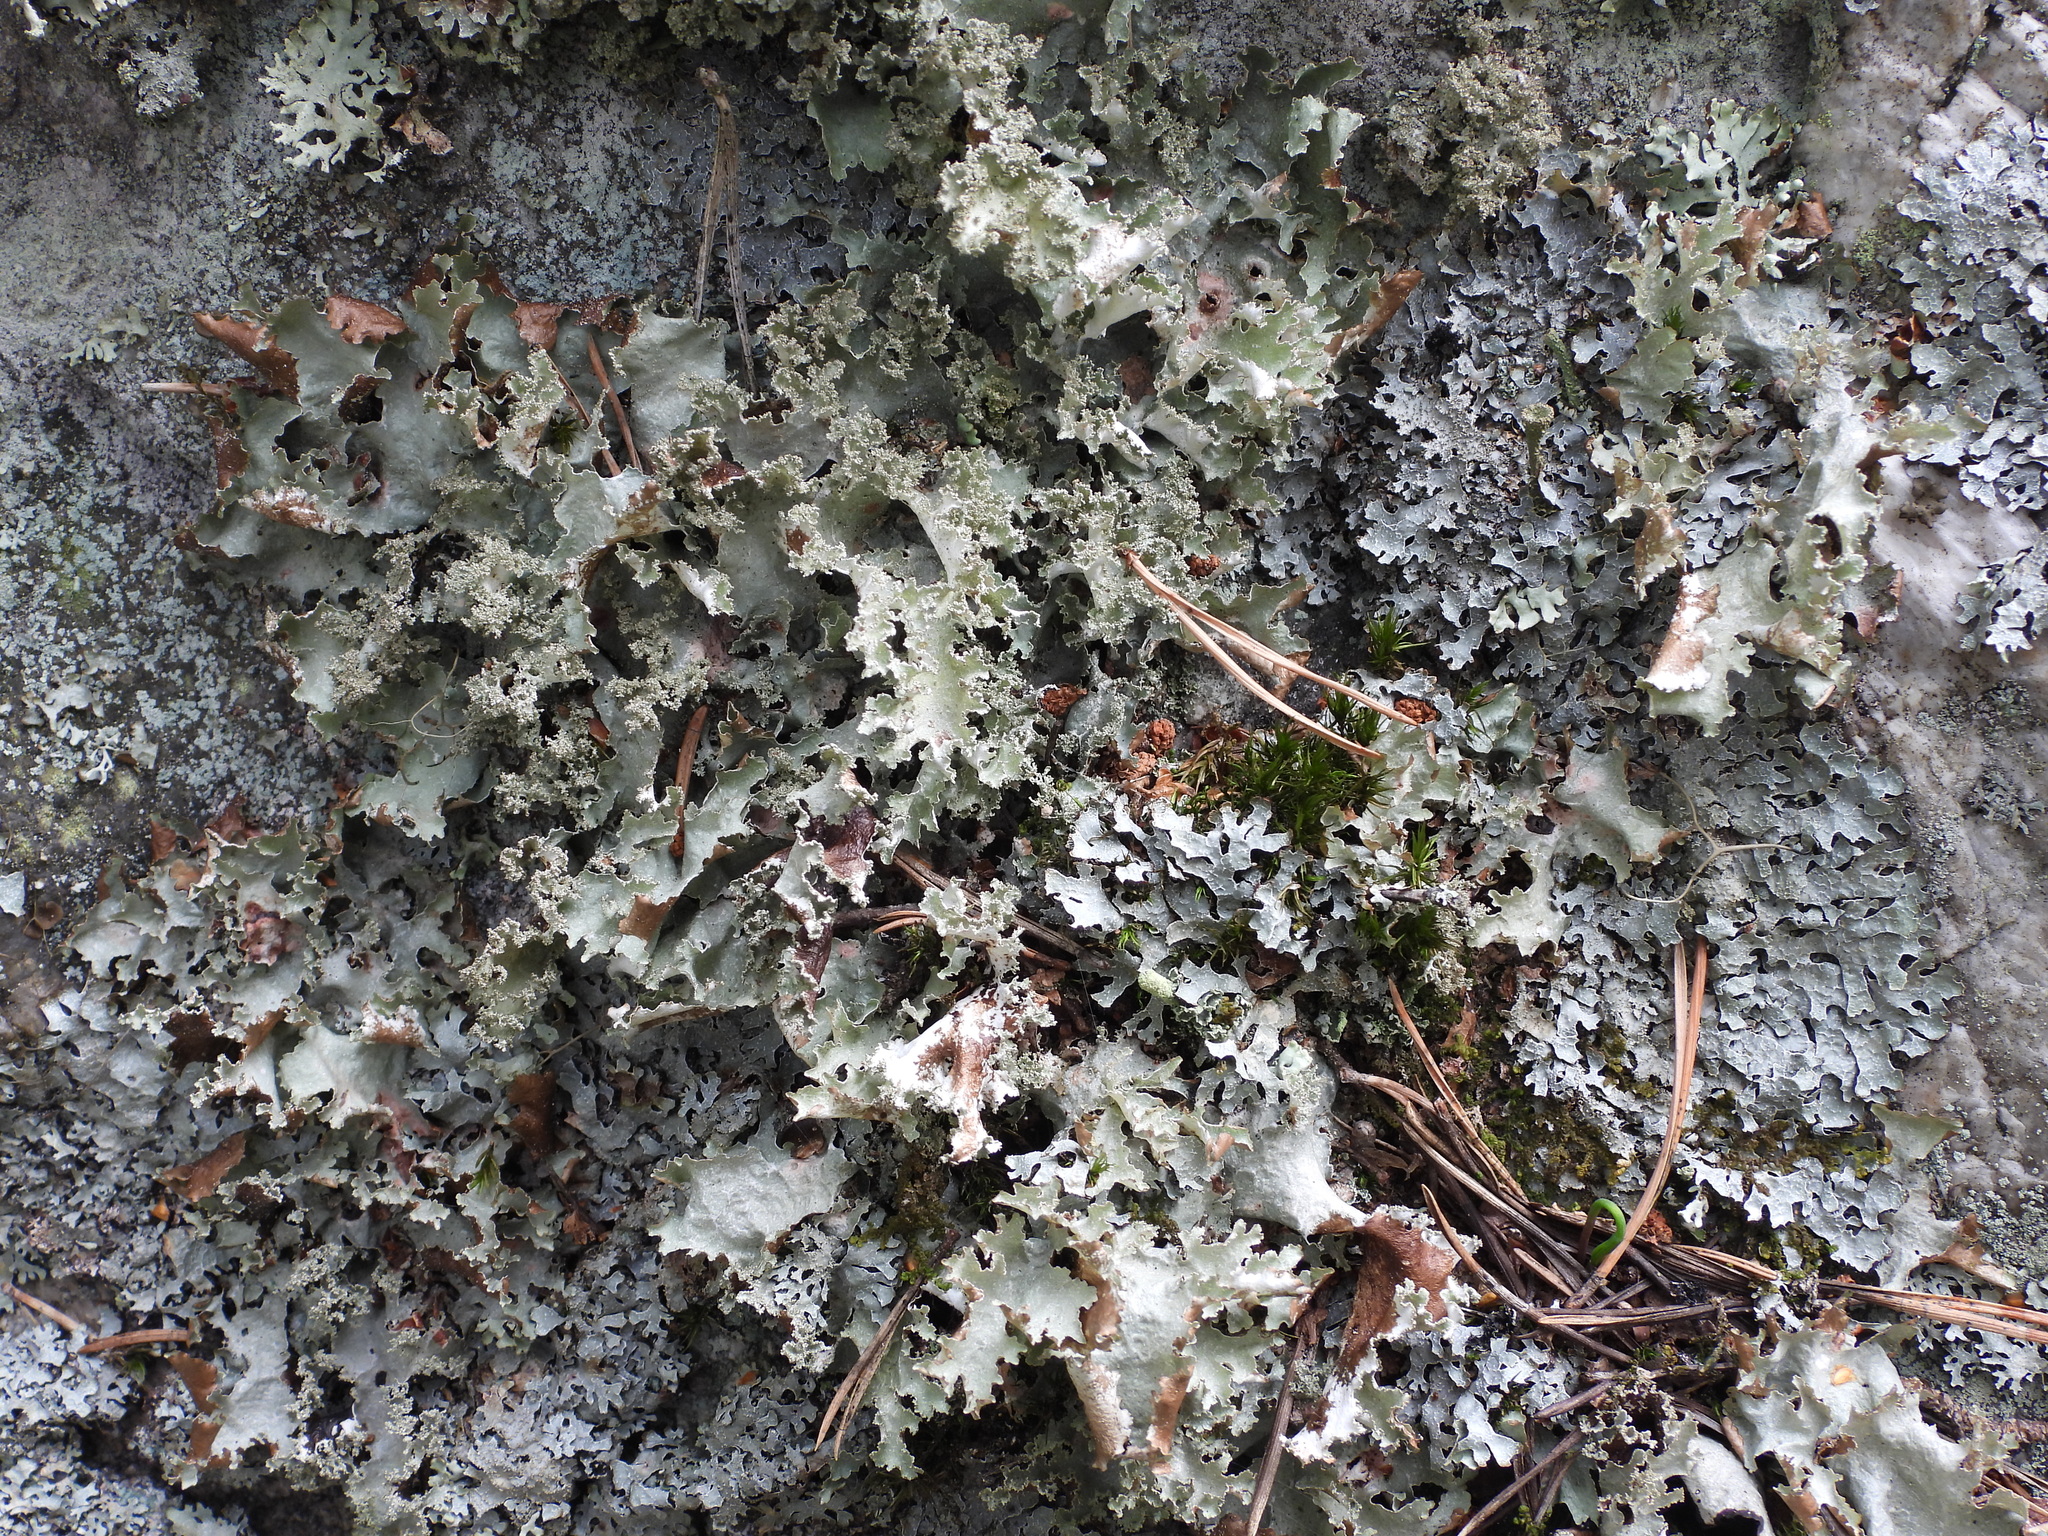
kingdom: Fungi
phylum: Ascomycota
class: Lecanoromycetes
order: Lecanorales
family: Parmeliaceae
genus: Platismatia
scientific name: Platismatia glauca
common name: Varied rag lichen
